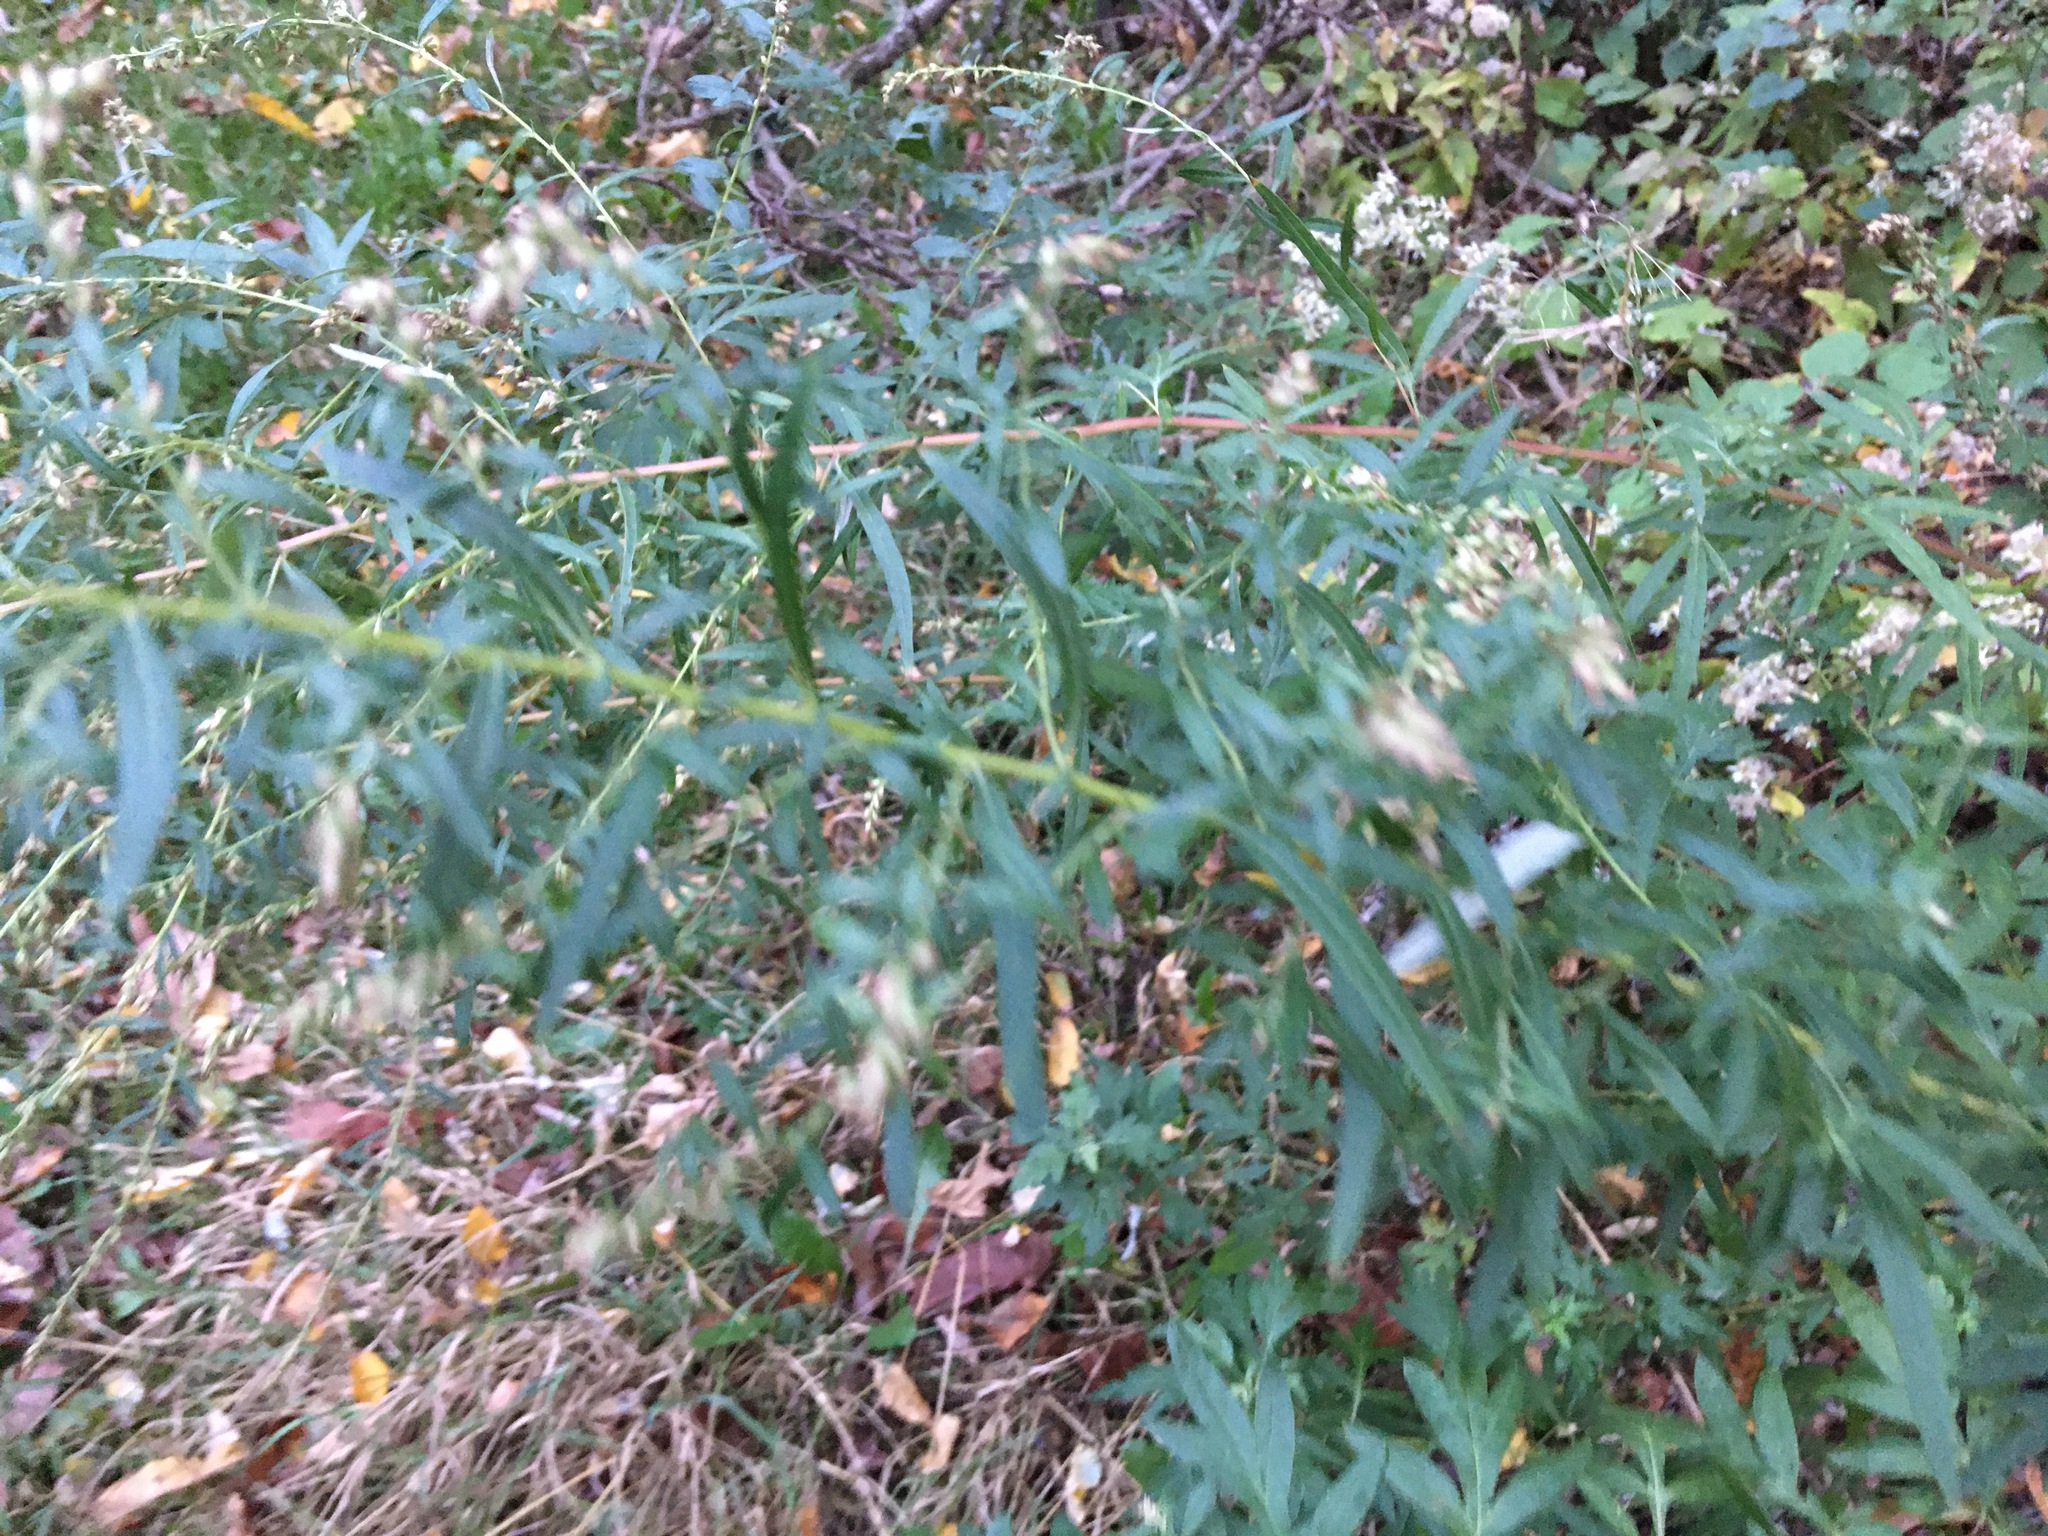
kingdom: Plantae
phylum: Tracheophyta
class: Magnoliopsida
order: Asterales
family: Asteraceae
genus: Artemisia
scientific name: Artemisia vulgaris
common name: Mugwort
